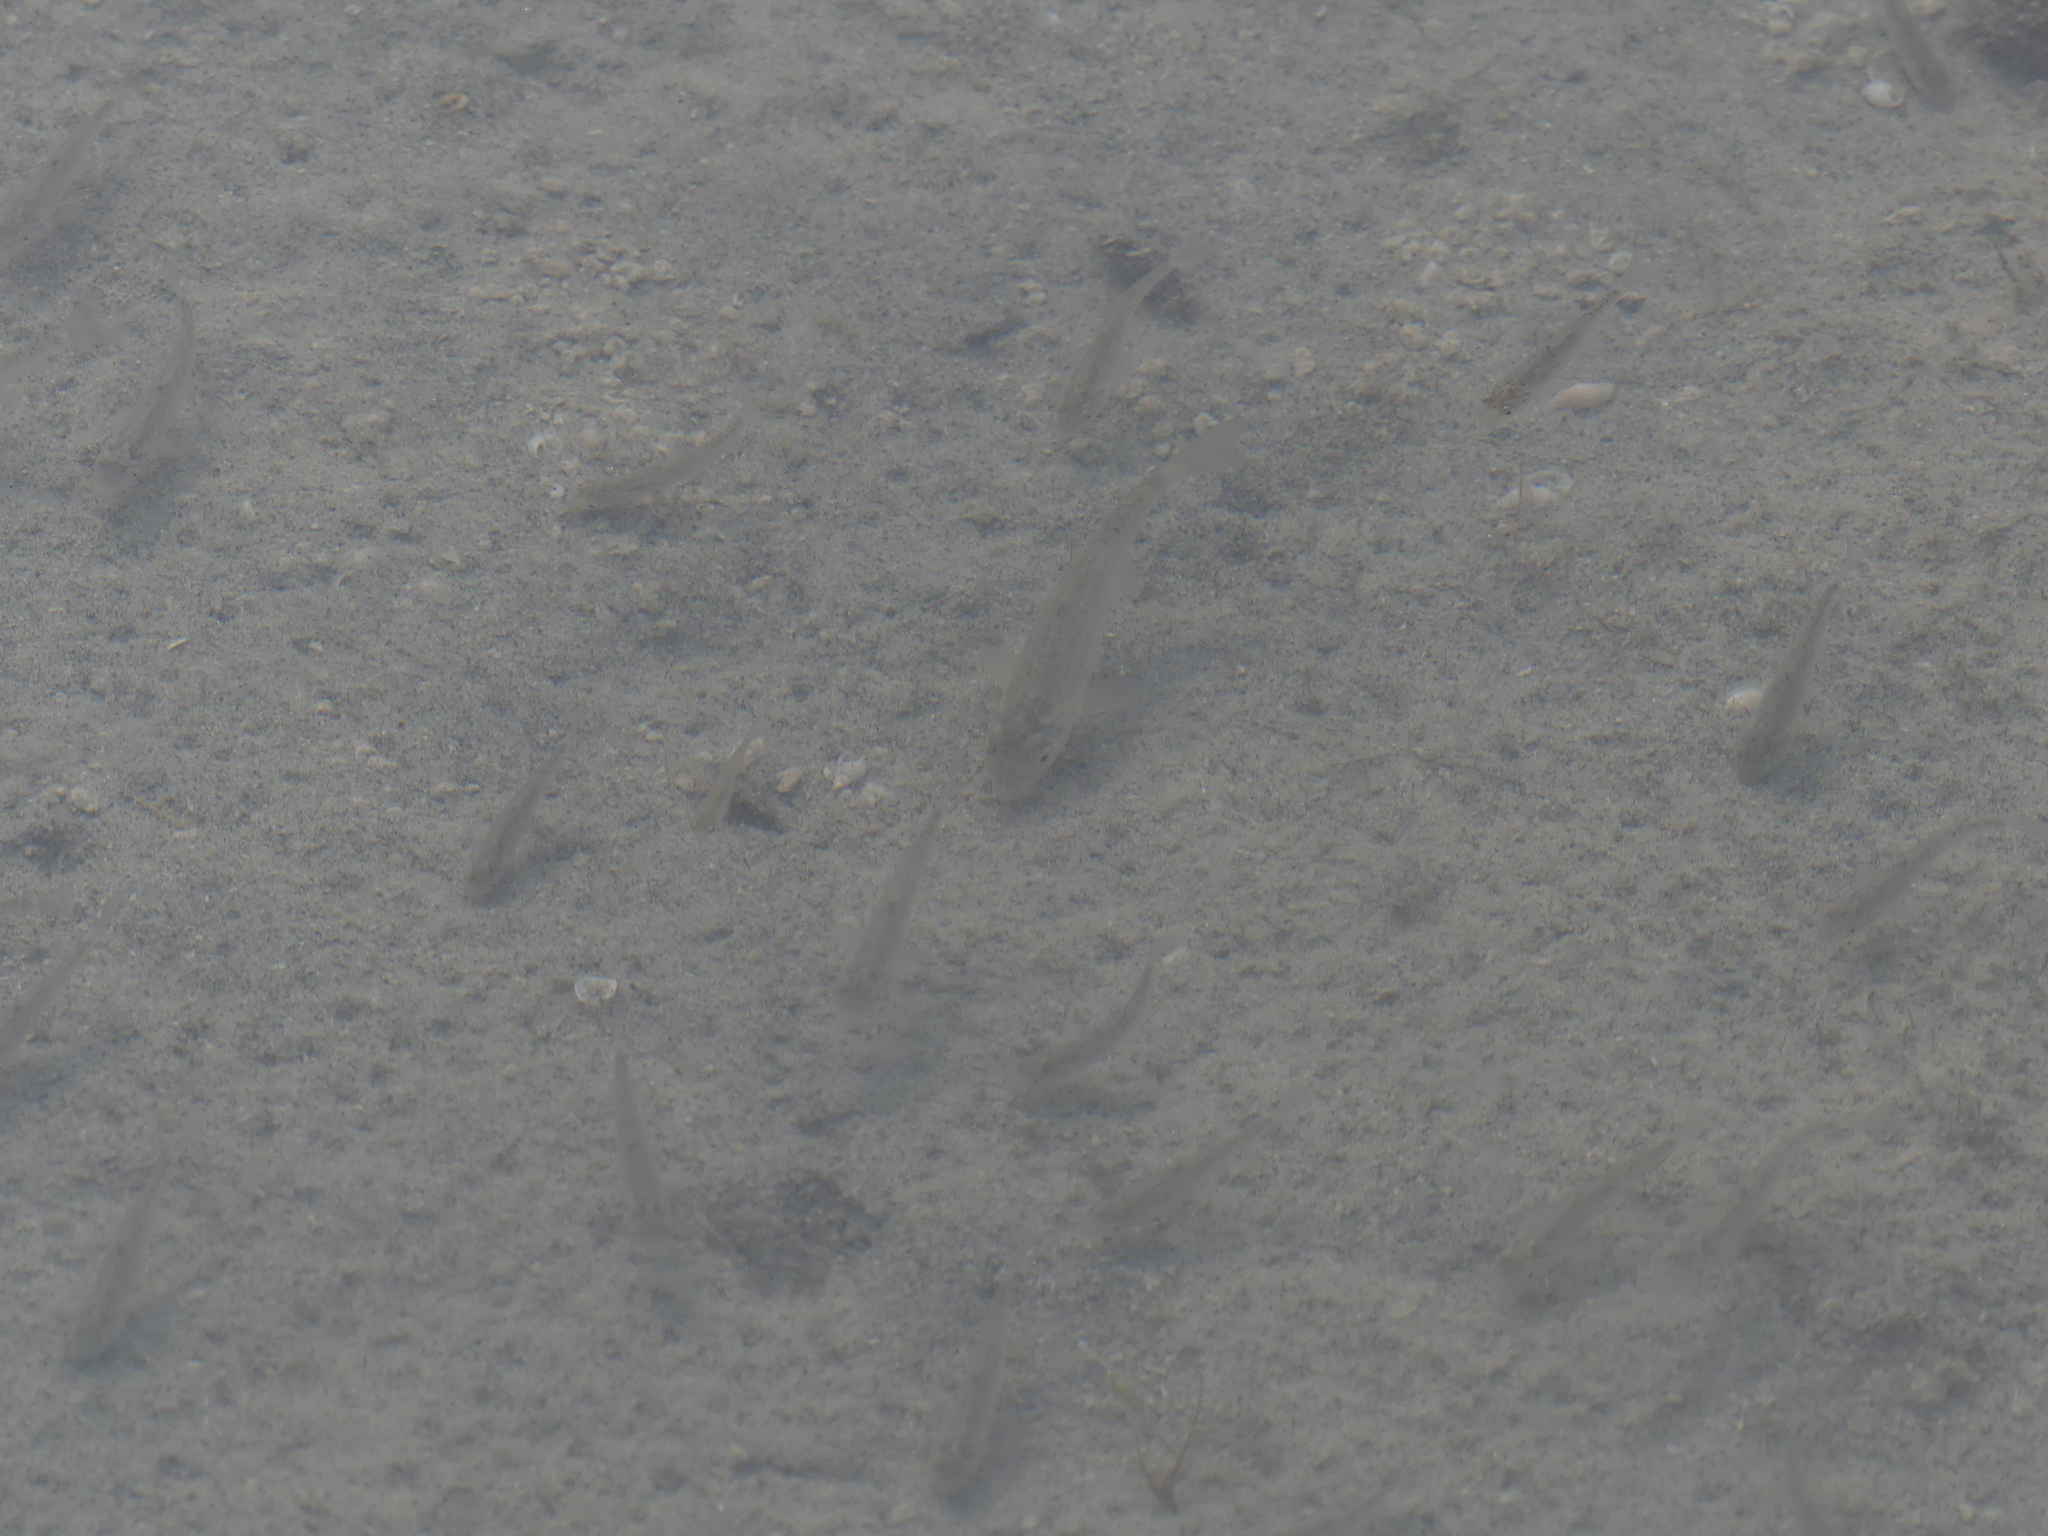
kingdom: Animalia
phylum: Chordata
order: Cypriniformes
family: Catostomidae
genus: Catostomus
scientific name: Catostomus catostomus
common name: Longnose sucker
